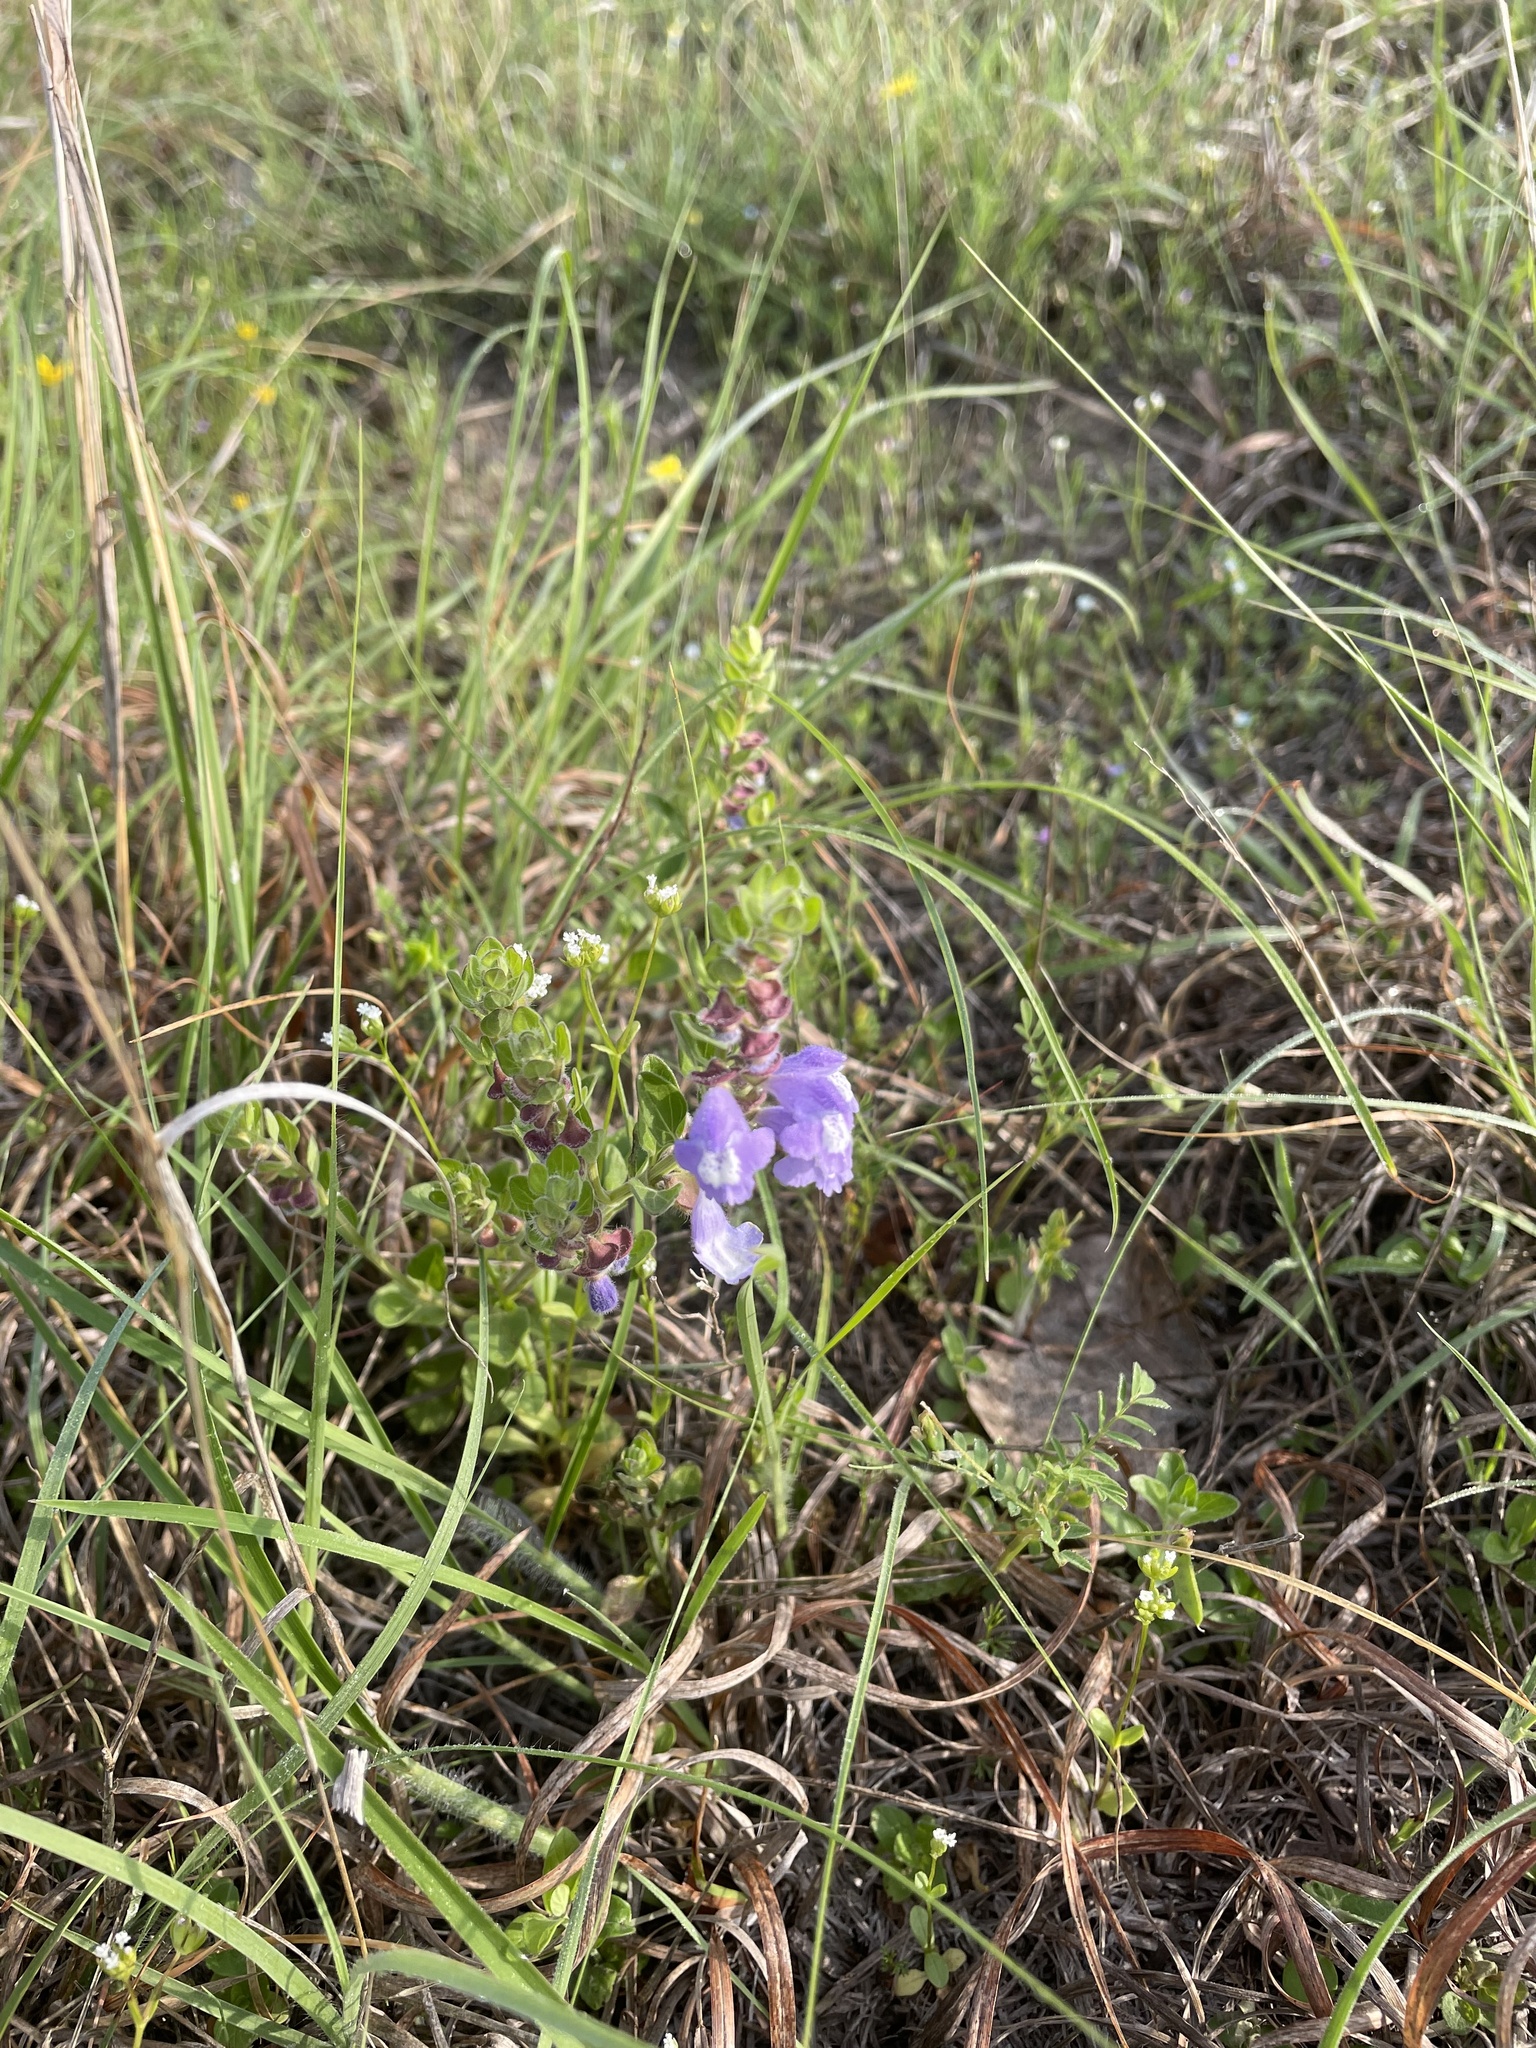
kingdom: Plantae
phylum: Tracheophyta
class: Magnoliopsida
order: Lamiales
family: Lamiaceae
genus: Scutellaria
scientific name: Scutellaria drummondii
